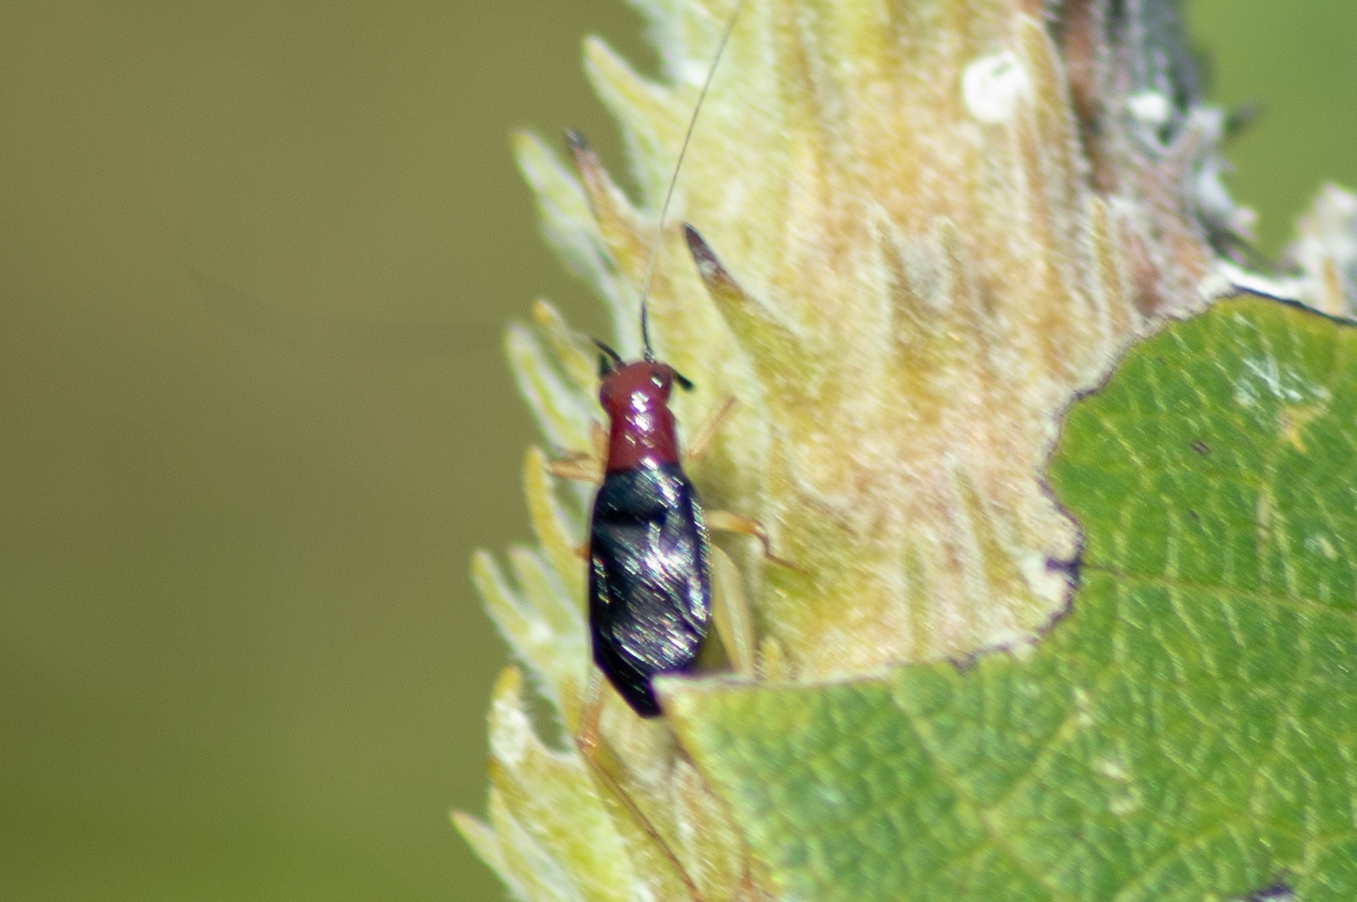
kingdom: Animalia
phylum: Arthropoda
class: Insecta
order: Orthoptera
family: Trigonidiidae
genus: Phyllopalpus
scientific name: Phyllopalpus pulchellus
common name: Handsome trig
